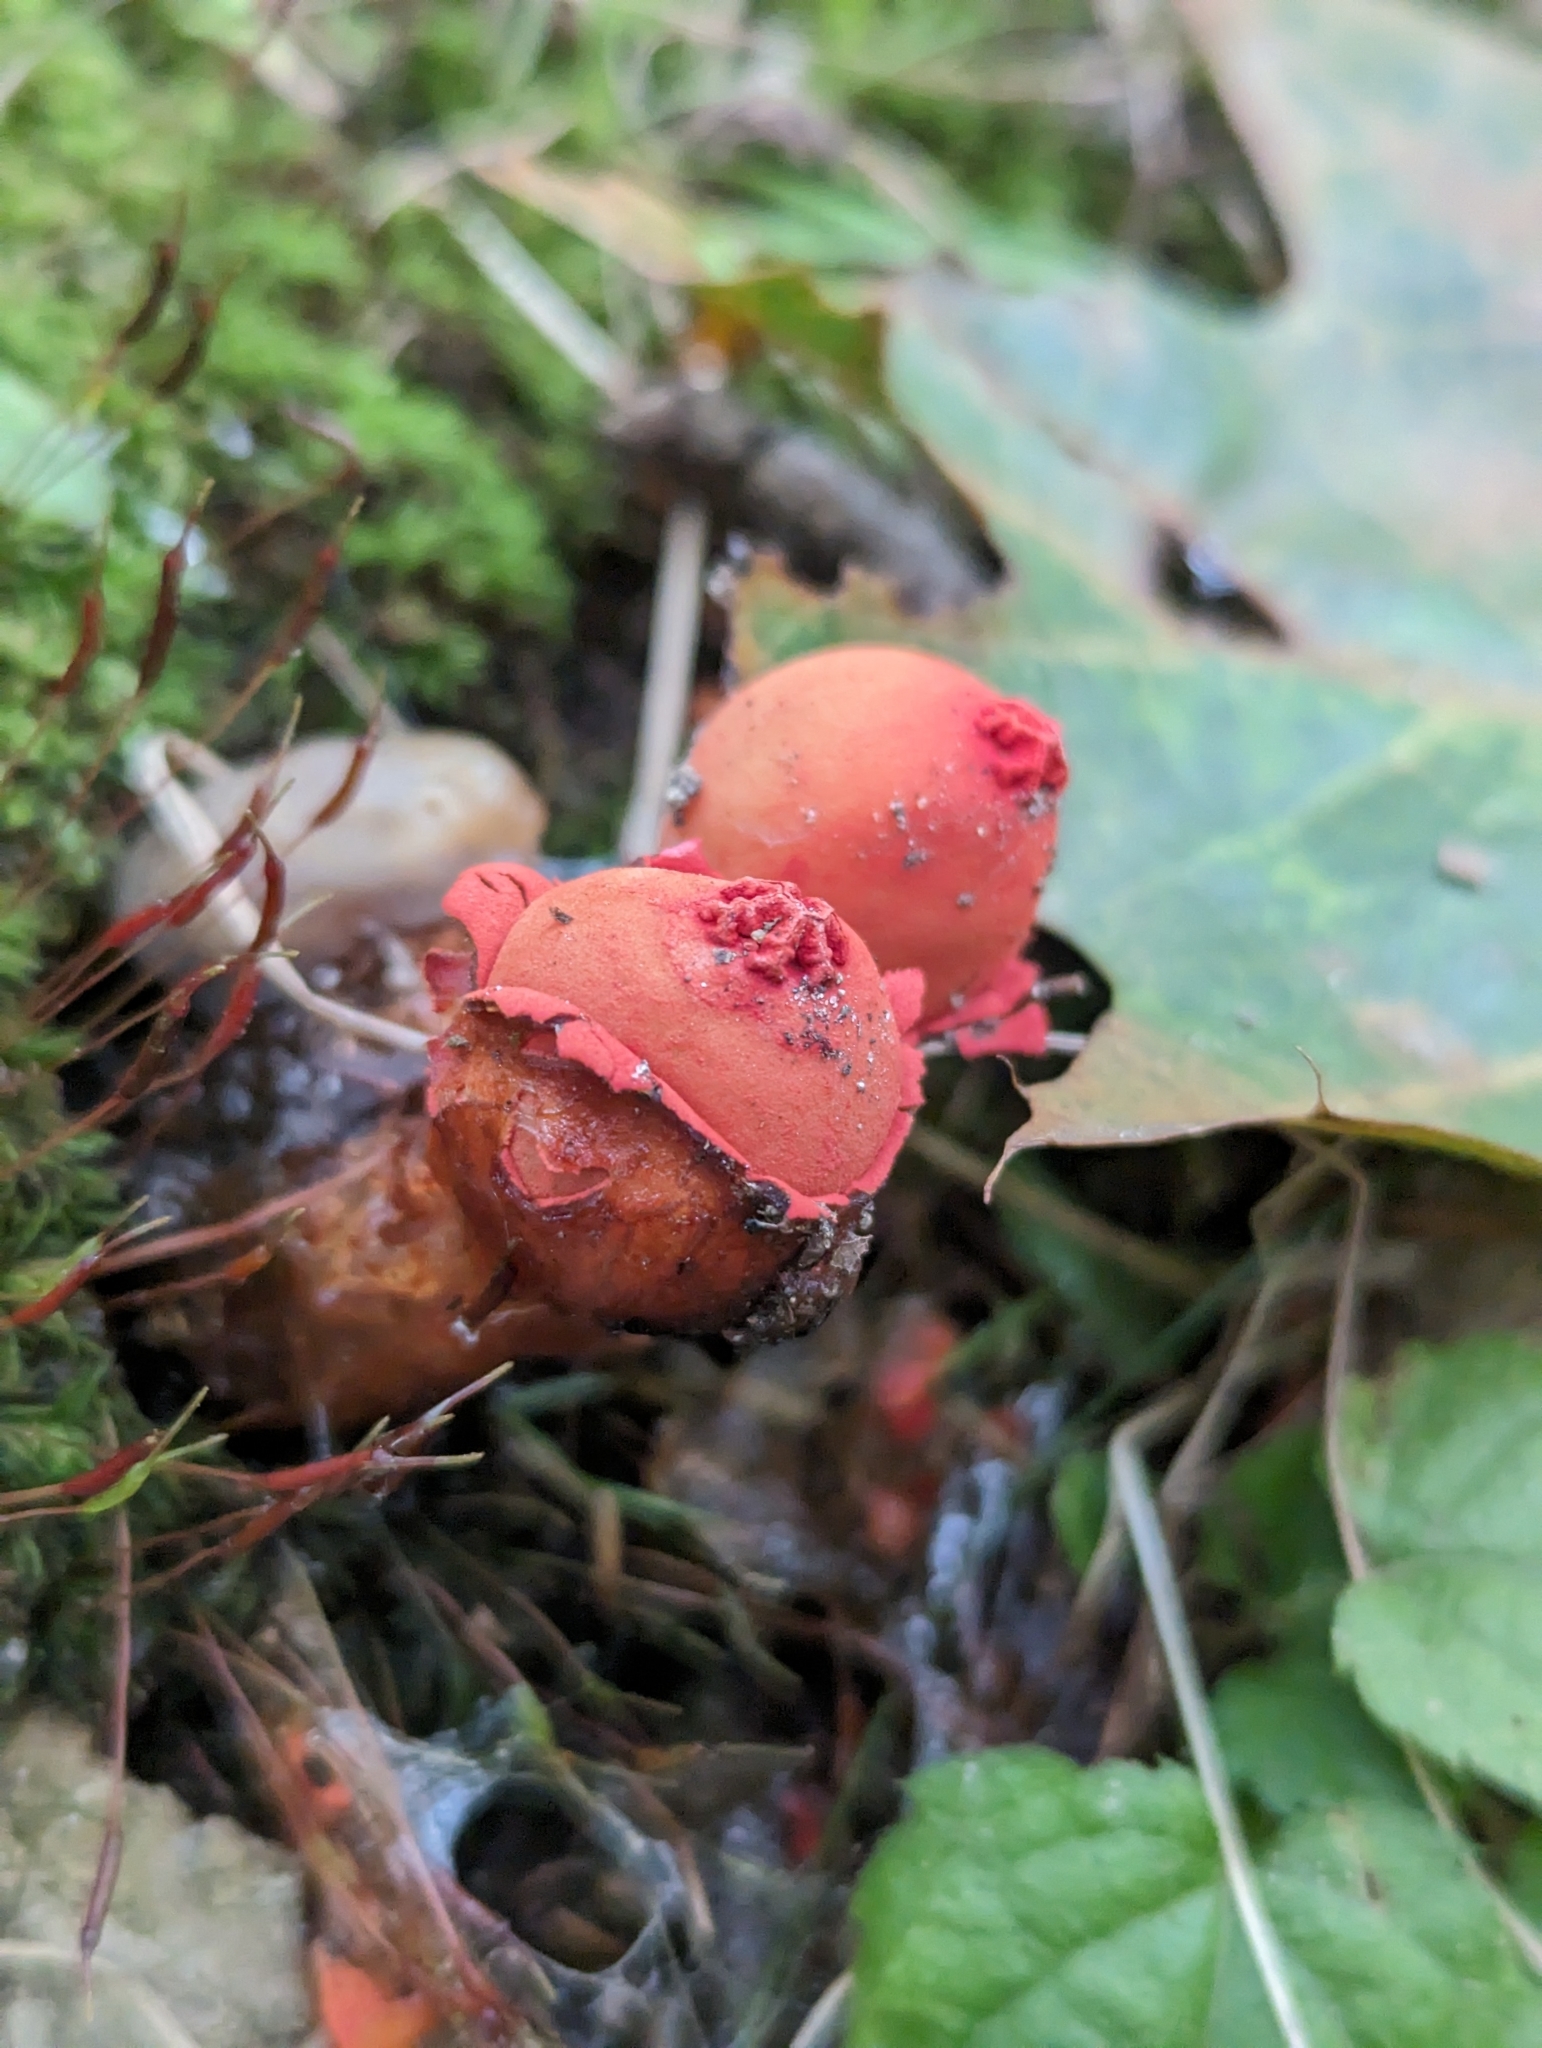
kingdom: Fungi
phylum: Basidiomycota
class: Agaricomycetes
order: Boletales
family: Calostomataceae
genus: Calostoma
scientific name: Calostoma cinnabarinum
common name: Stalked puffball-in-aspic
